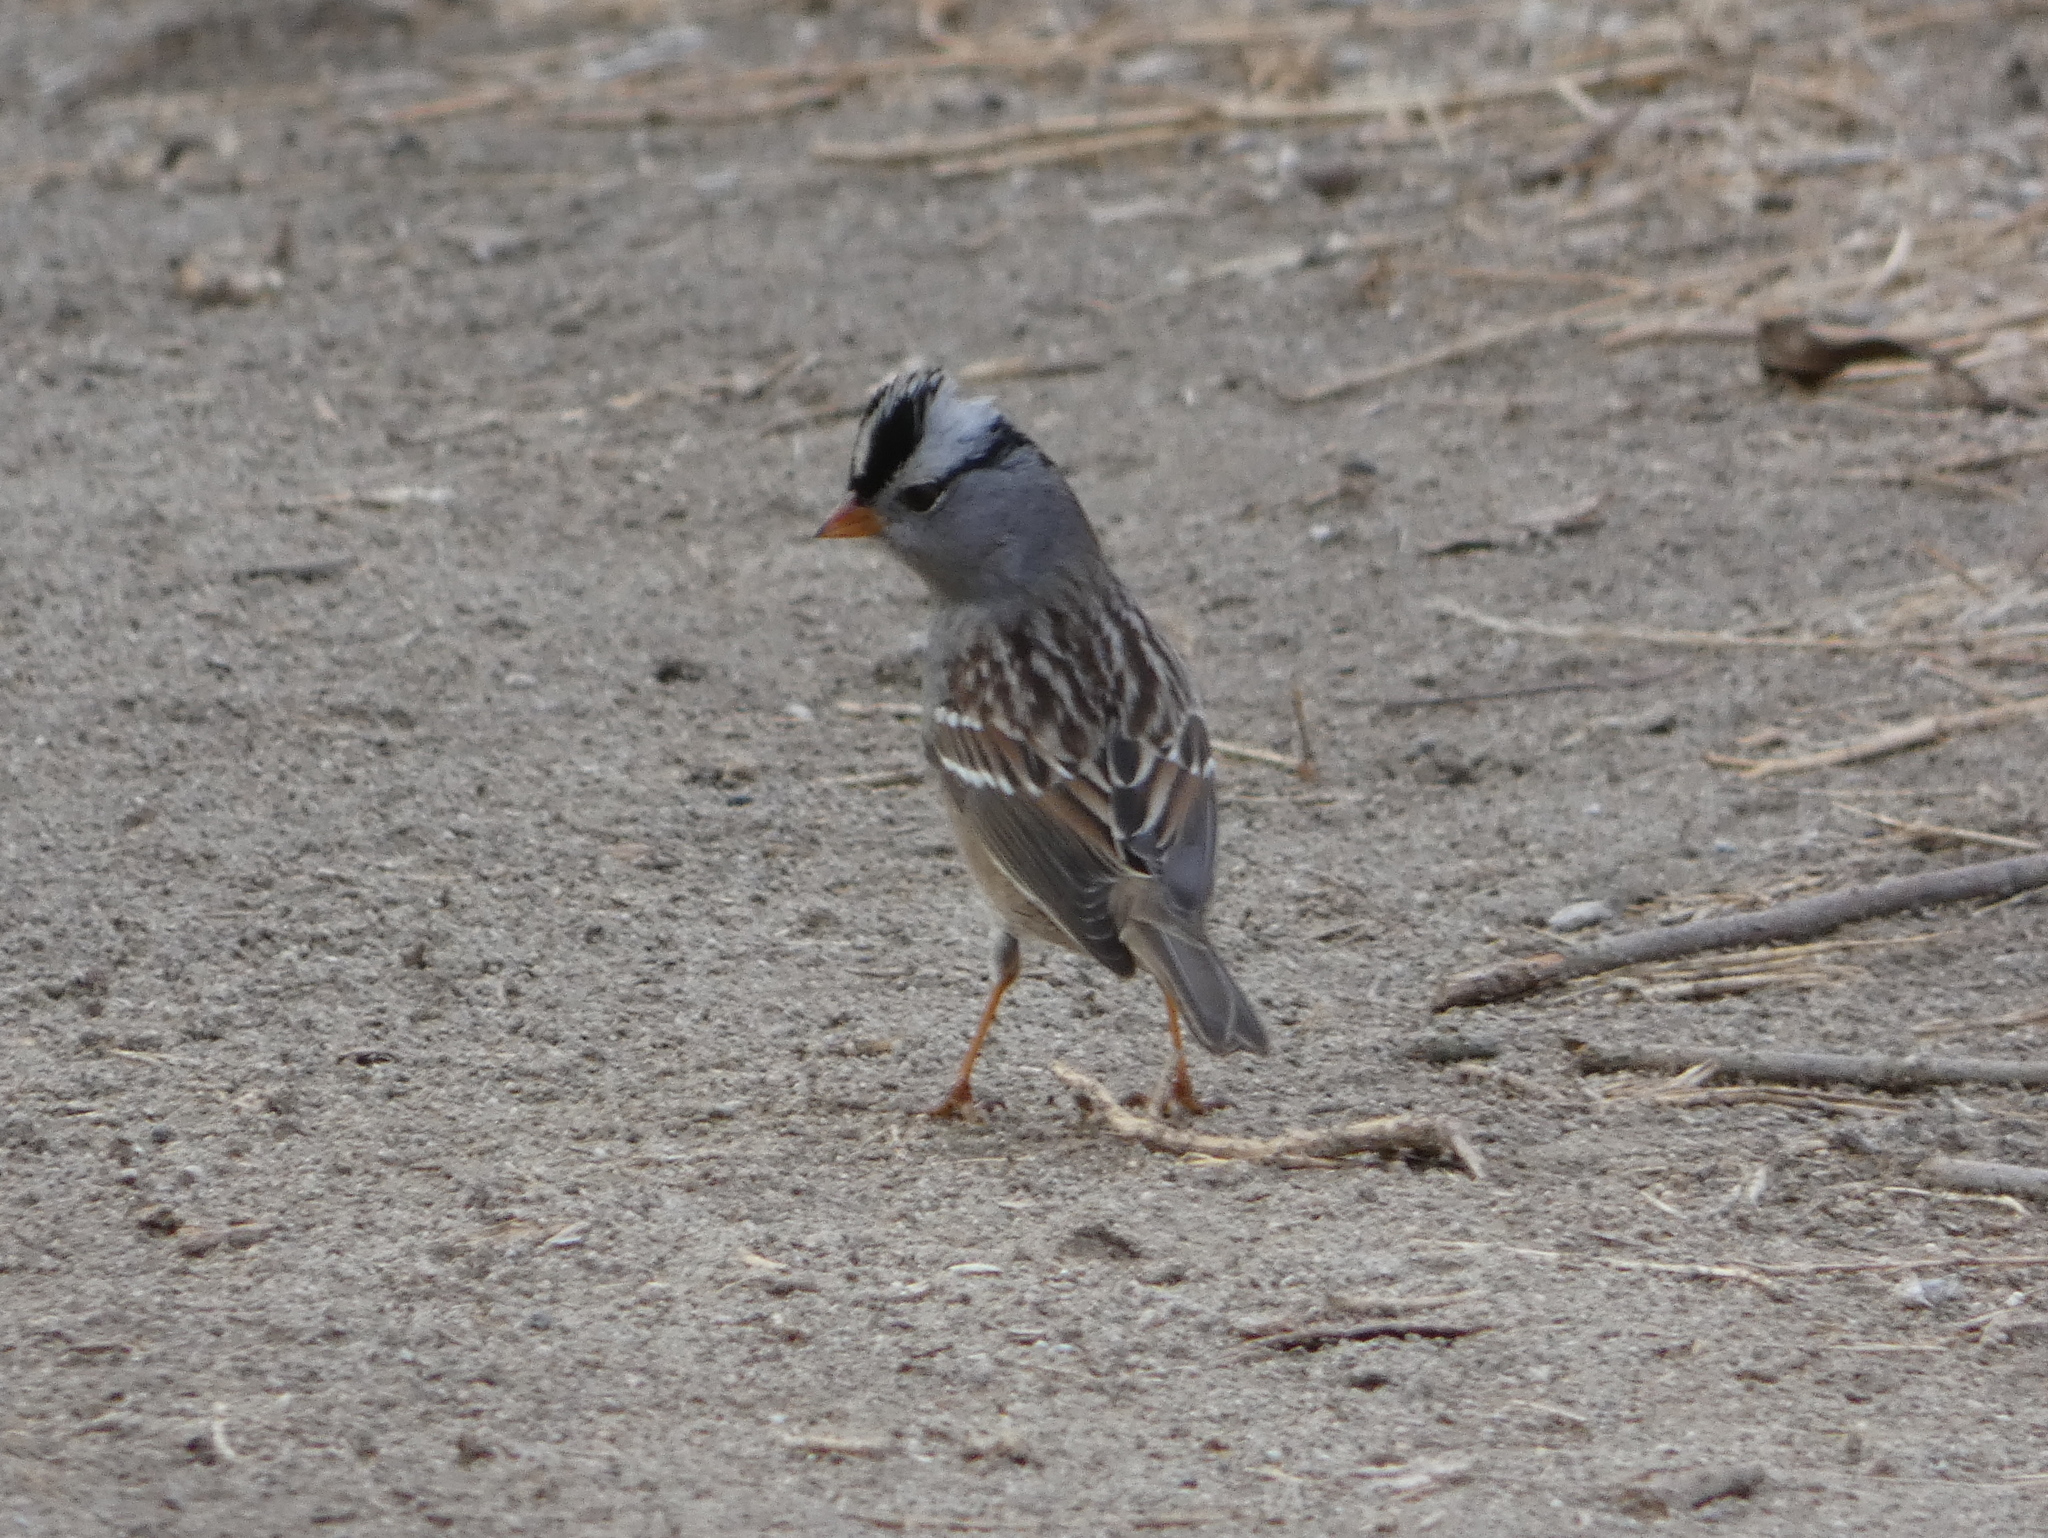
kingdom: Animalia
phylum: Chordata
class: Aves
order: Passeriformes
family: Passerellidae
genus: Zonotrichia
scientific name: Zonotrichia leucophrys
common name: White-crowned sparrow
